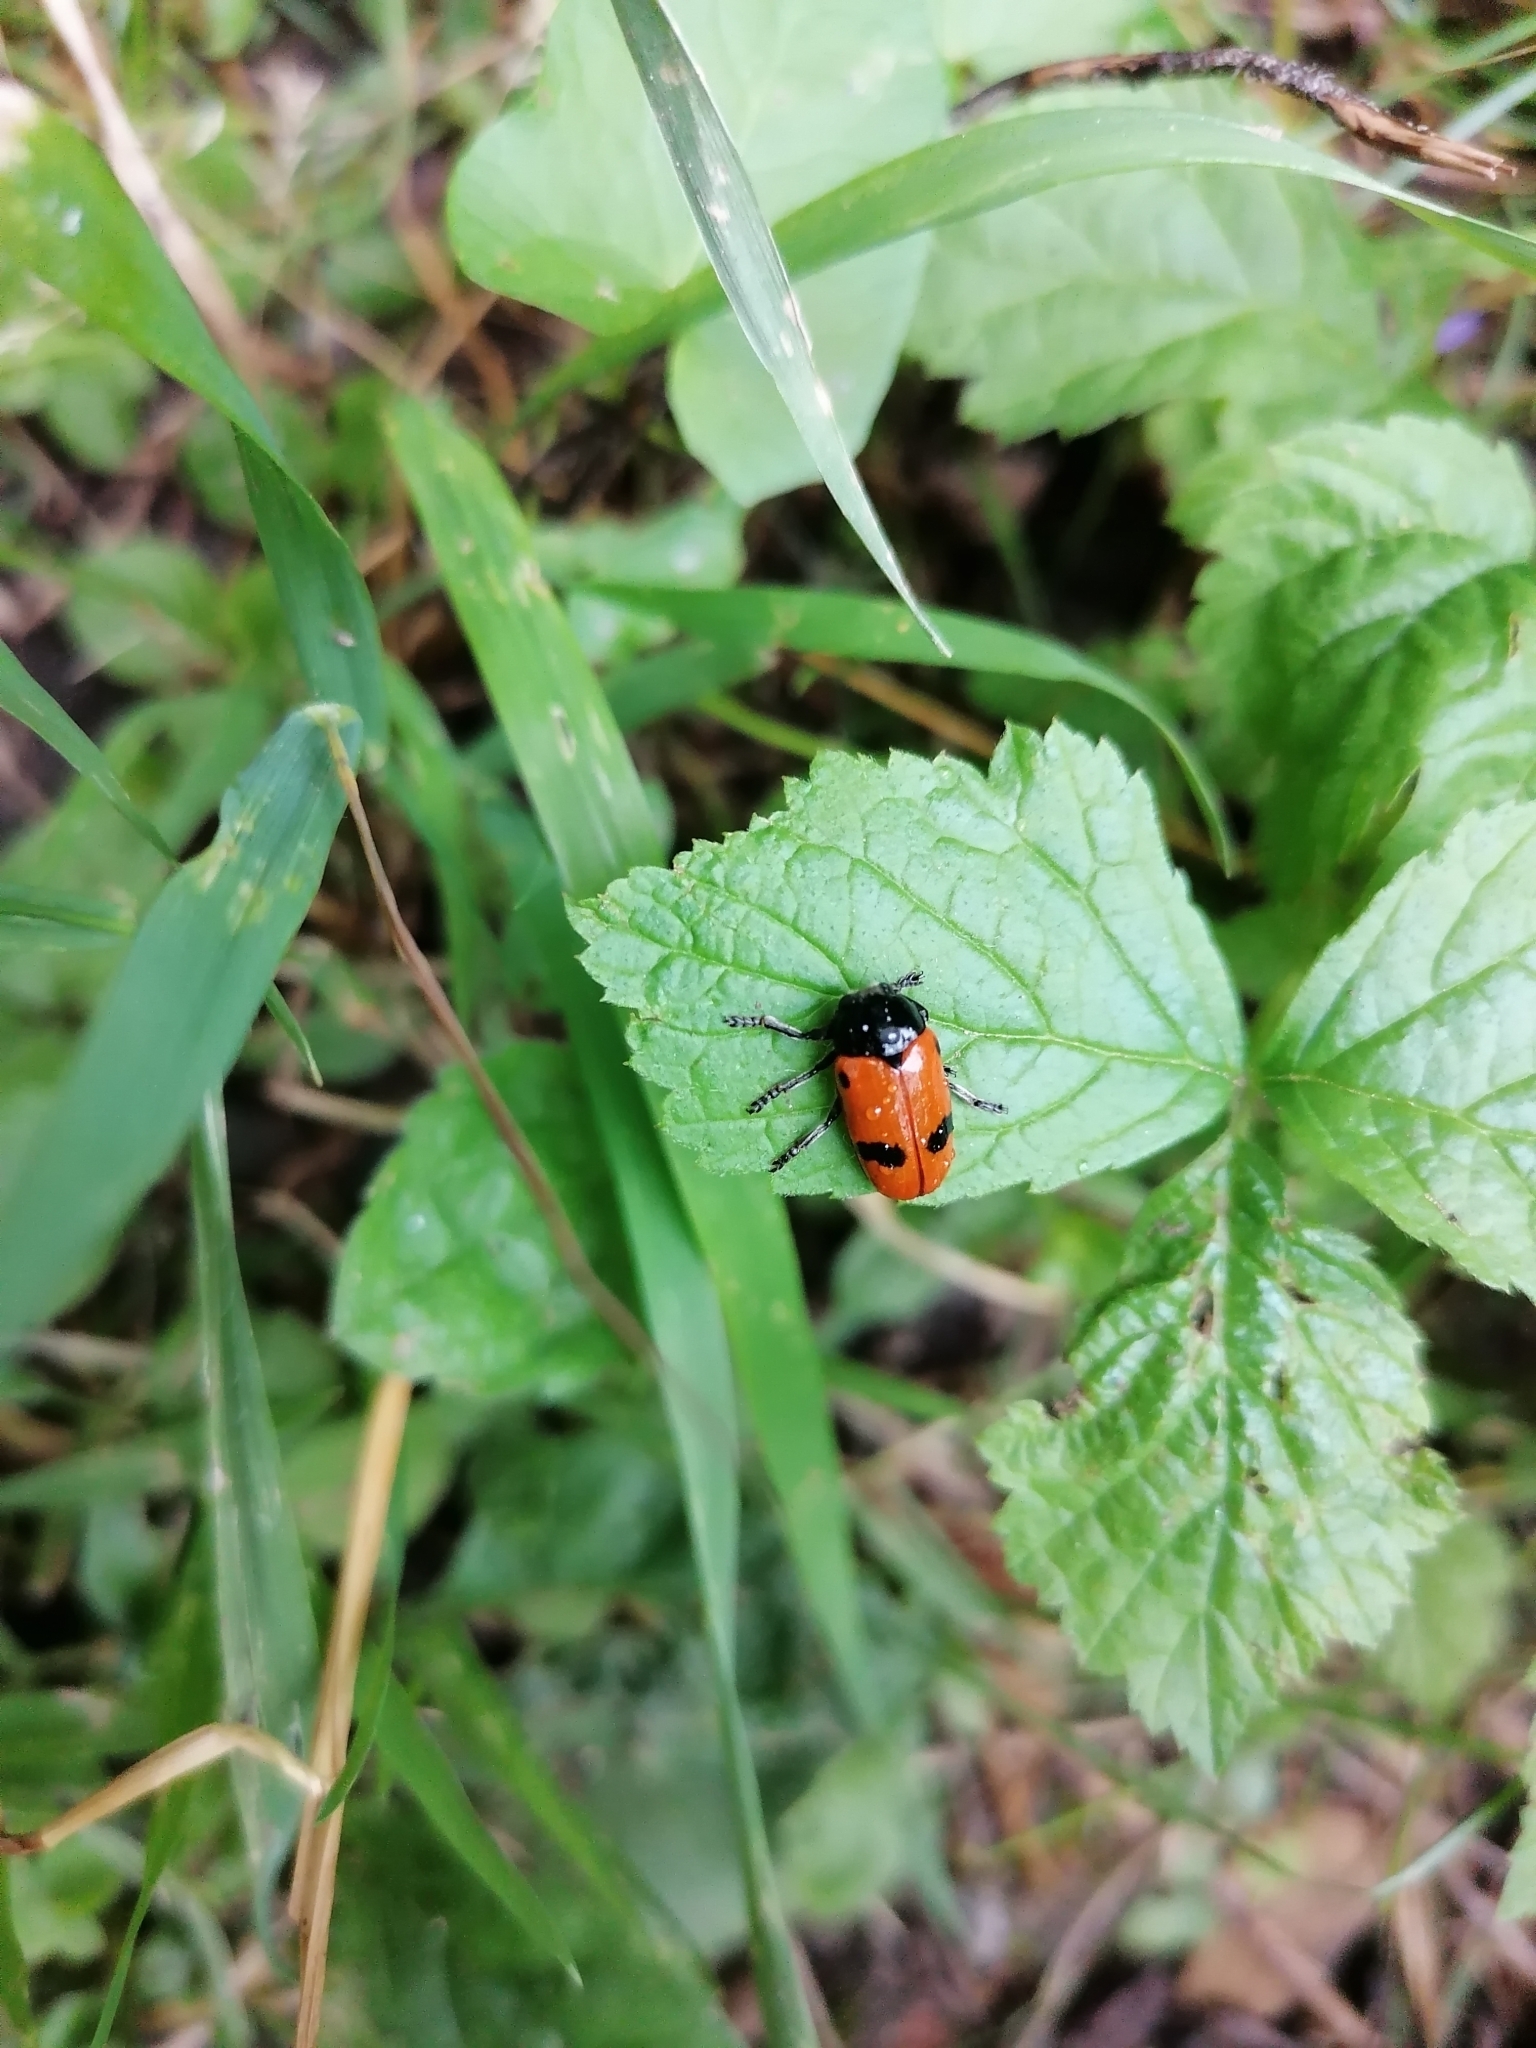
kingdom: Animalia
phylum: Arthropoda
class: Insecta
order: Coleoptera
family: Chrysomelidae
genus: Clytra
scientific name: Clytra laeviuscula
